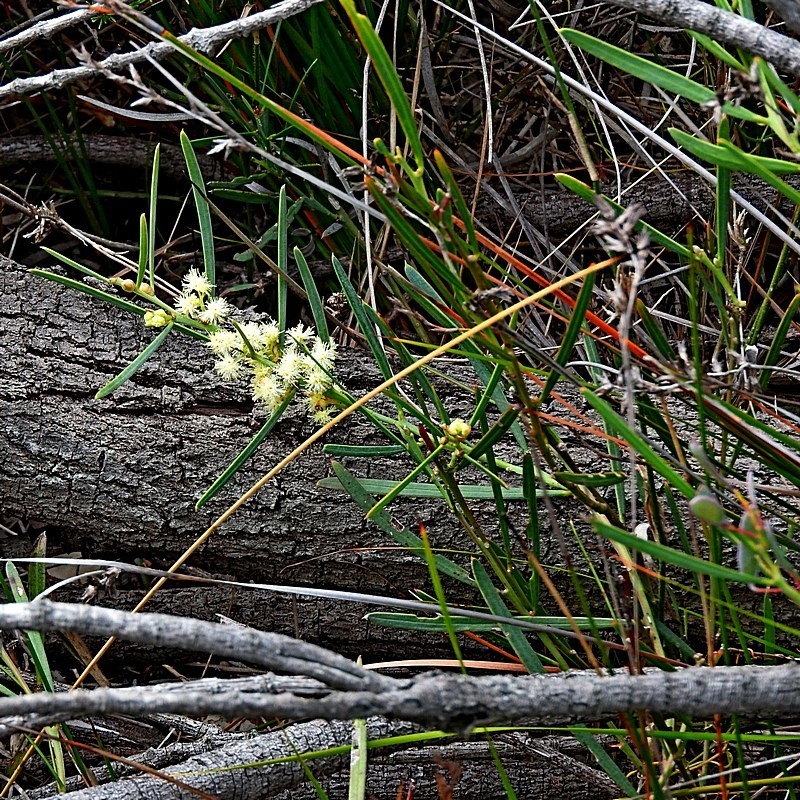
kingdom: Plantae
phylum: Tracheophyta
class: Magnoliopsida
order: Fabales
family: Fabaceae
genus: Acacia
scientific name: Acacia suaveolens
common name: Sweet acacia
